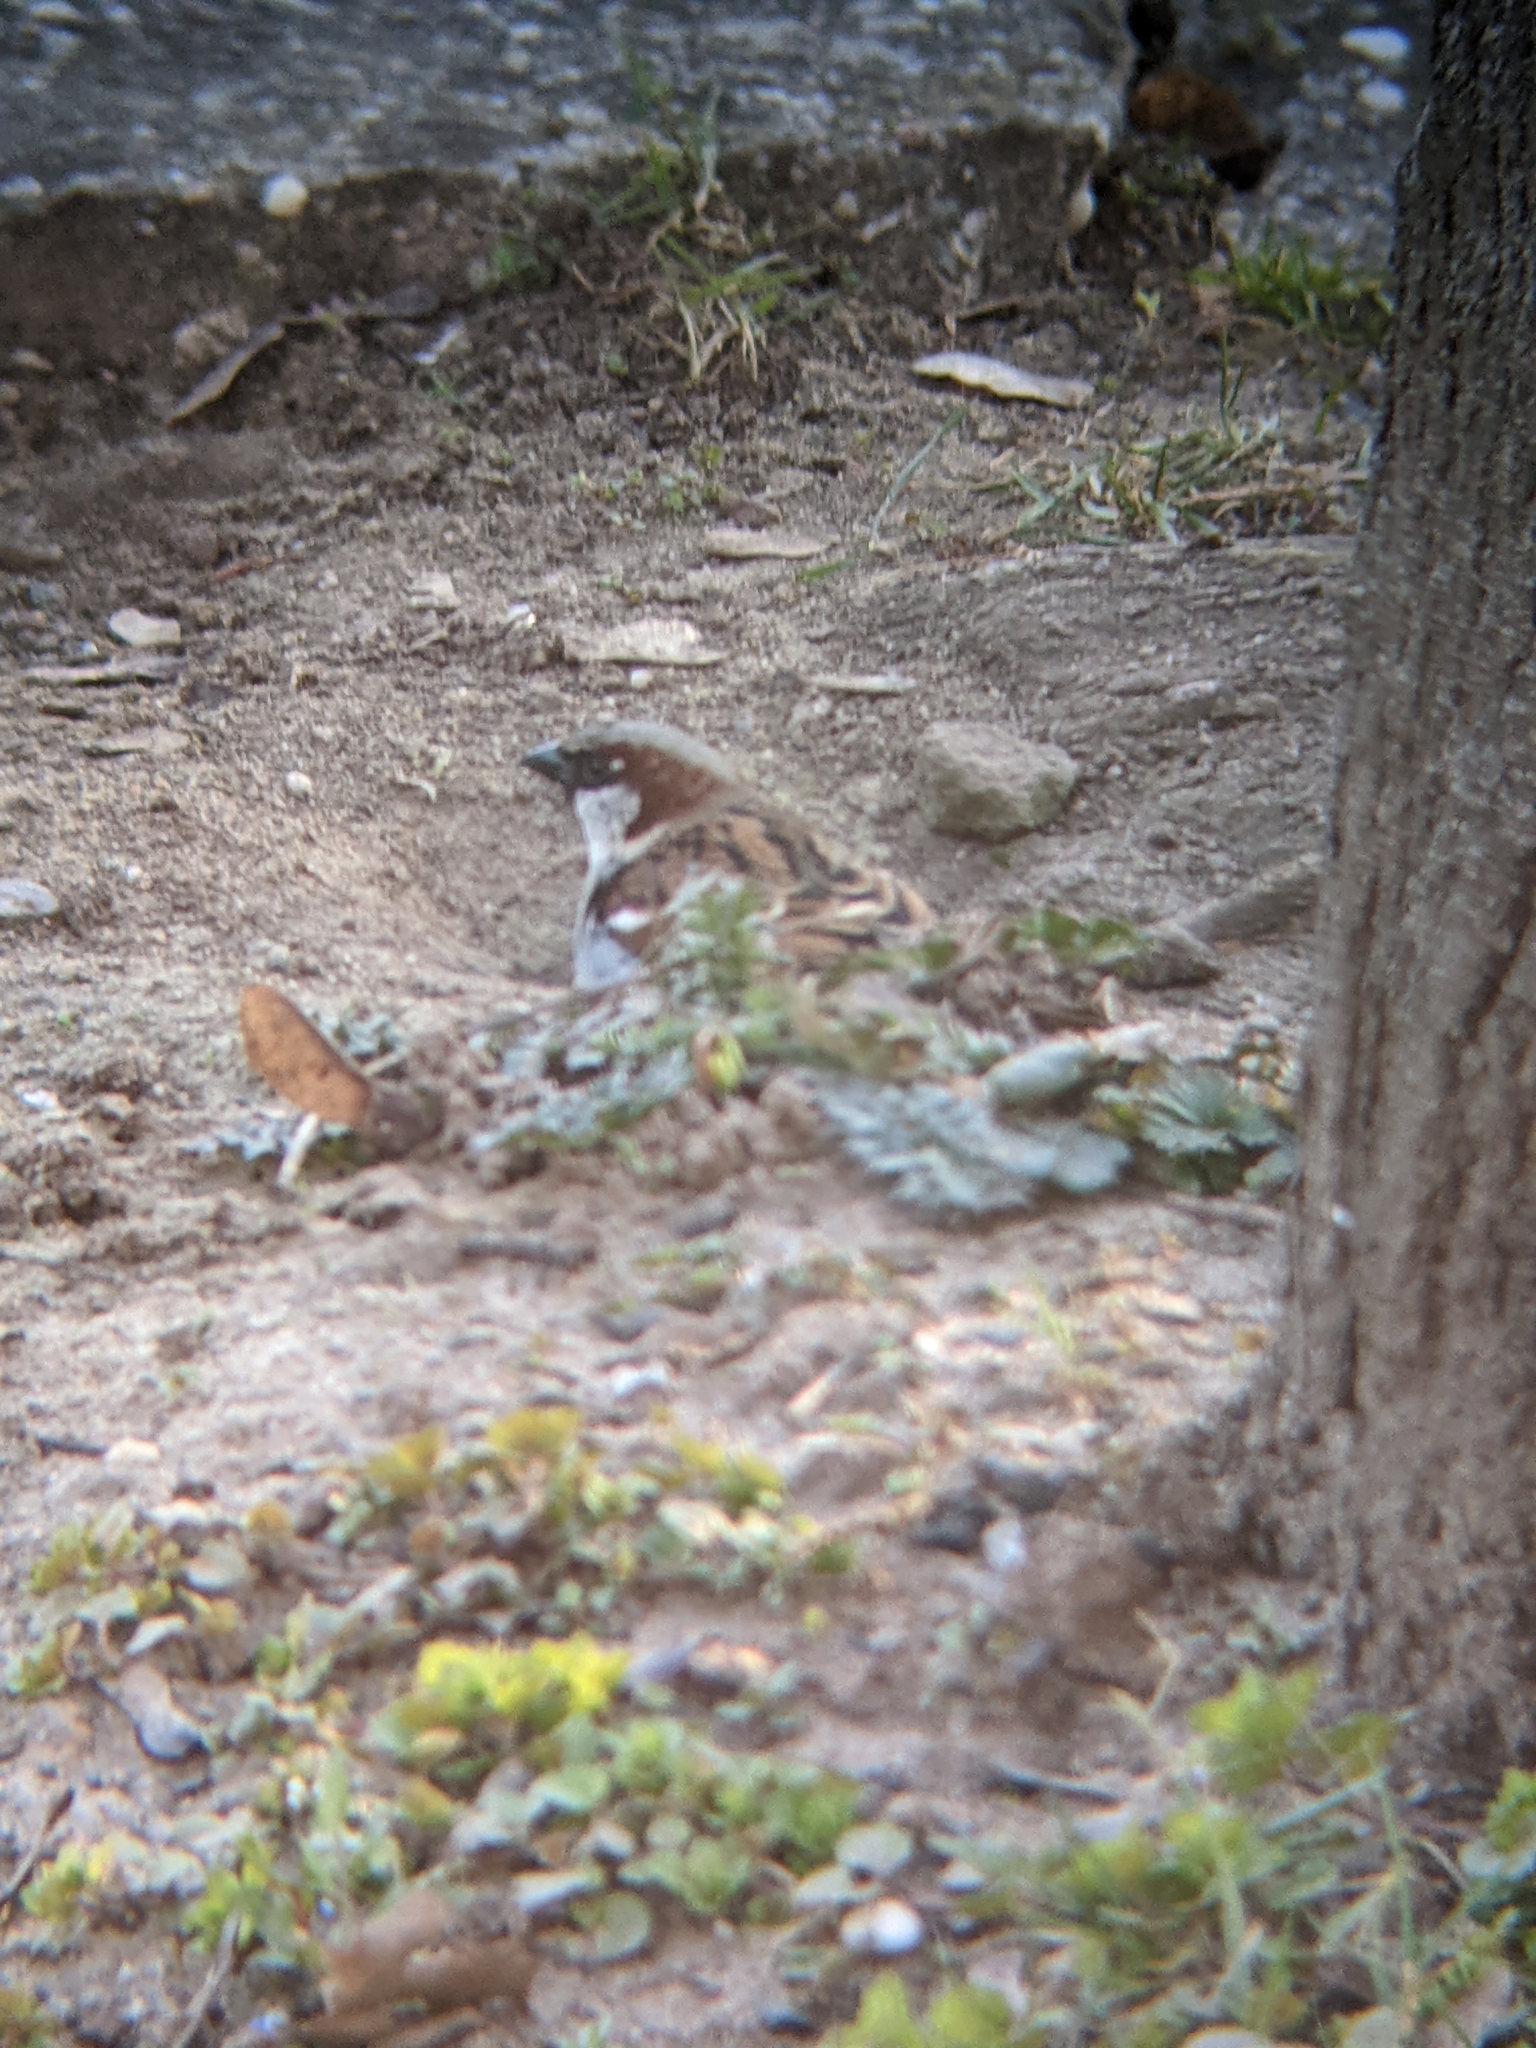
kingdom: Animalia
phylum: Chordata
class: Aves
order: Passeriformes
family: Passeridae
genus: Passer
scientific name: Passer domesticus
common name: House sparrow
